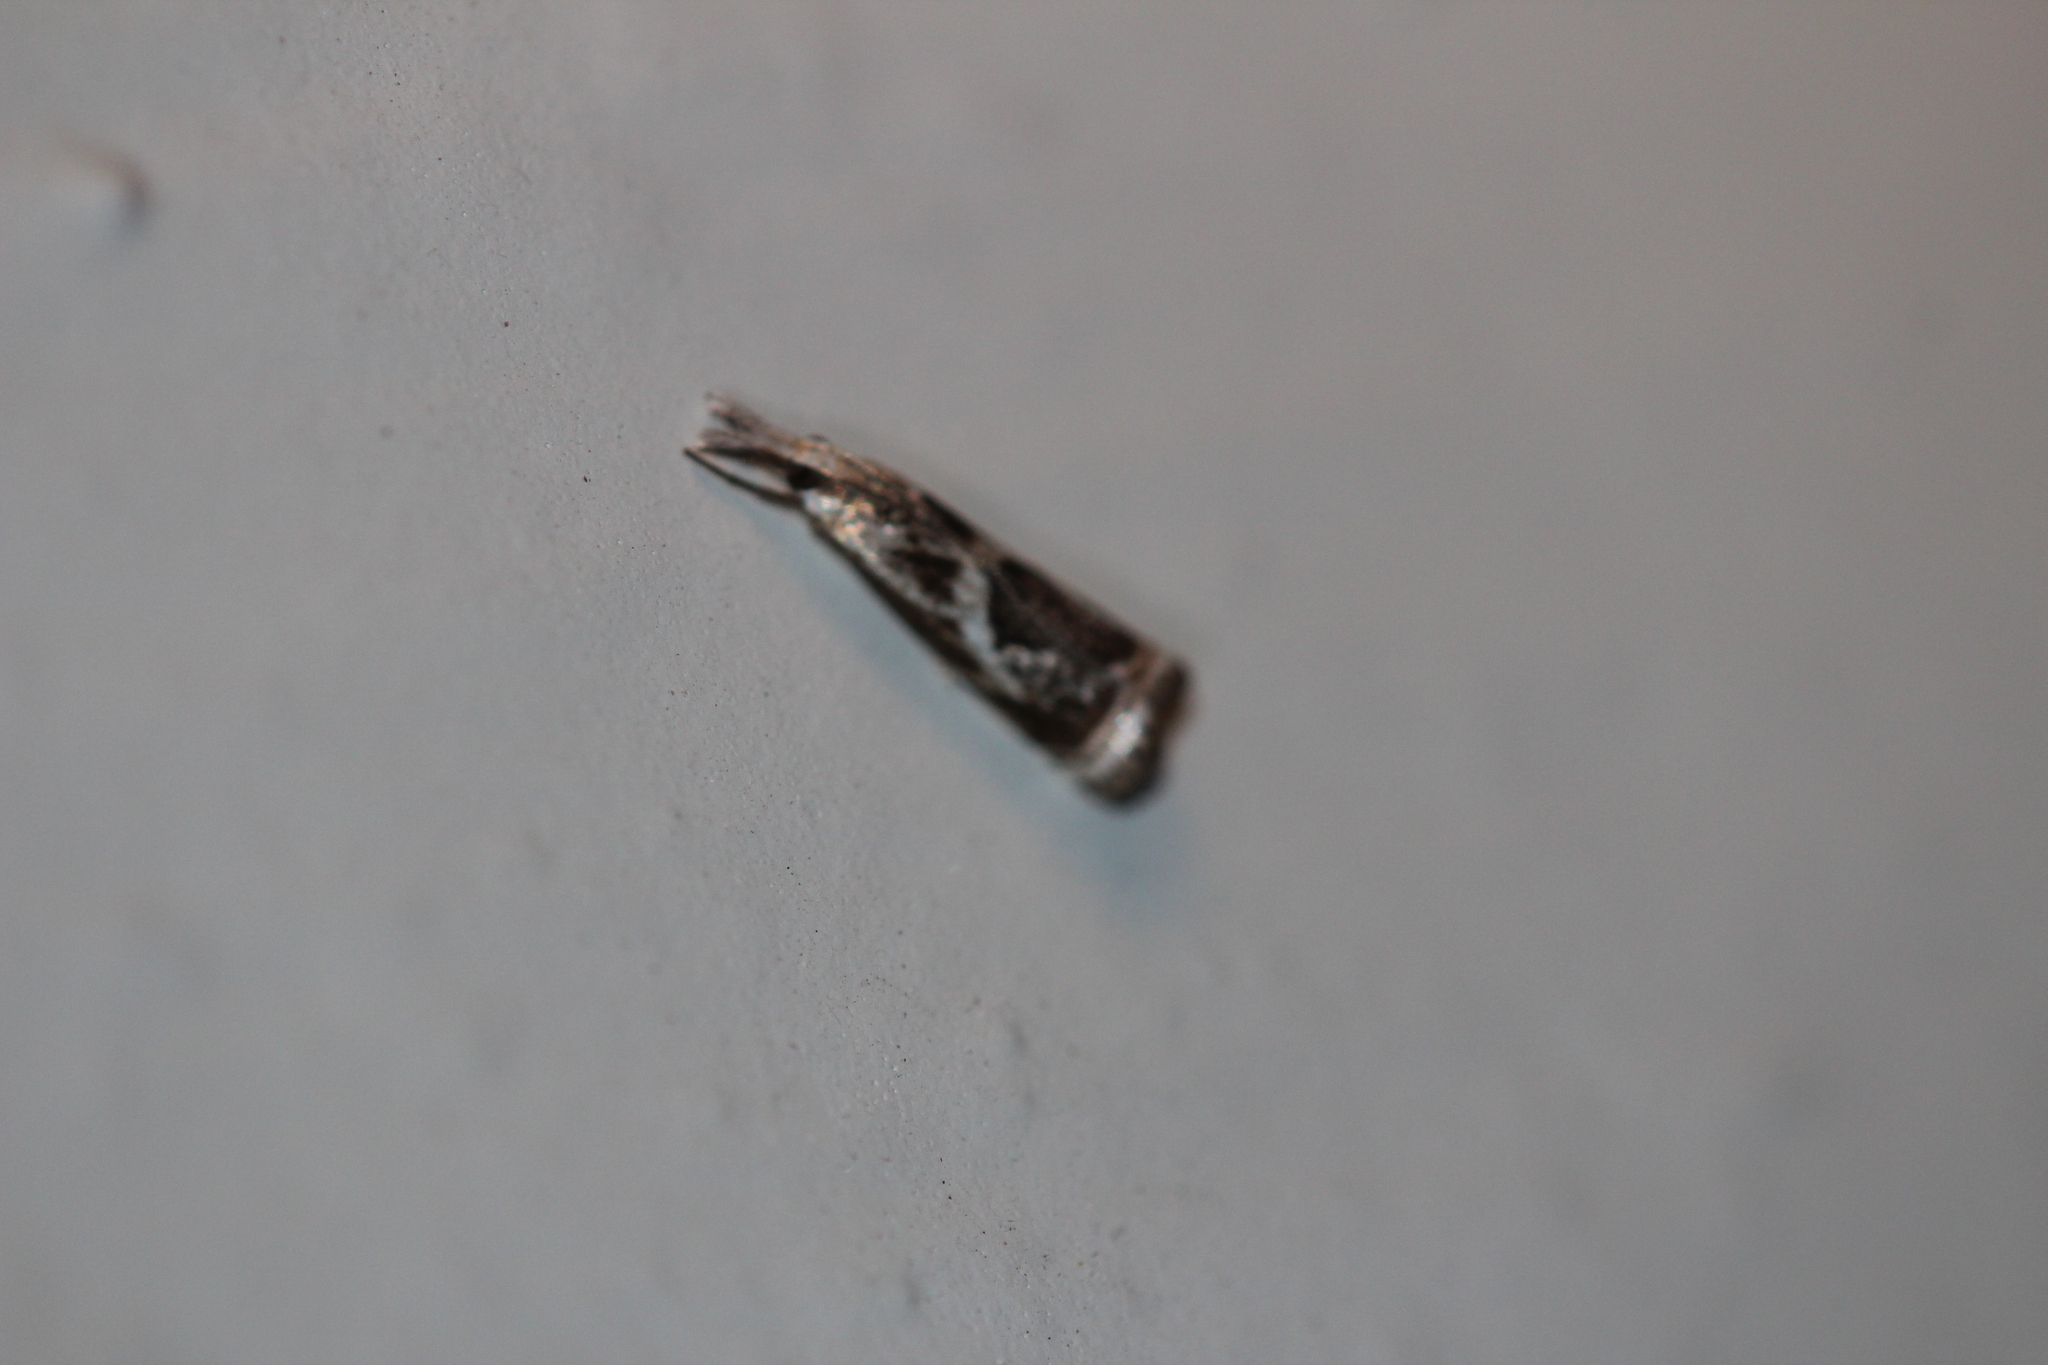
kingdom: Animalia
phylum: Arthropoda
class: Insecta
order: Lepidoptera
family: Crambidae
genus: Microcrambus
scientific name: Microcrambus elegans
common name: Elegant grass-veneer
